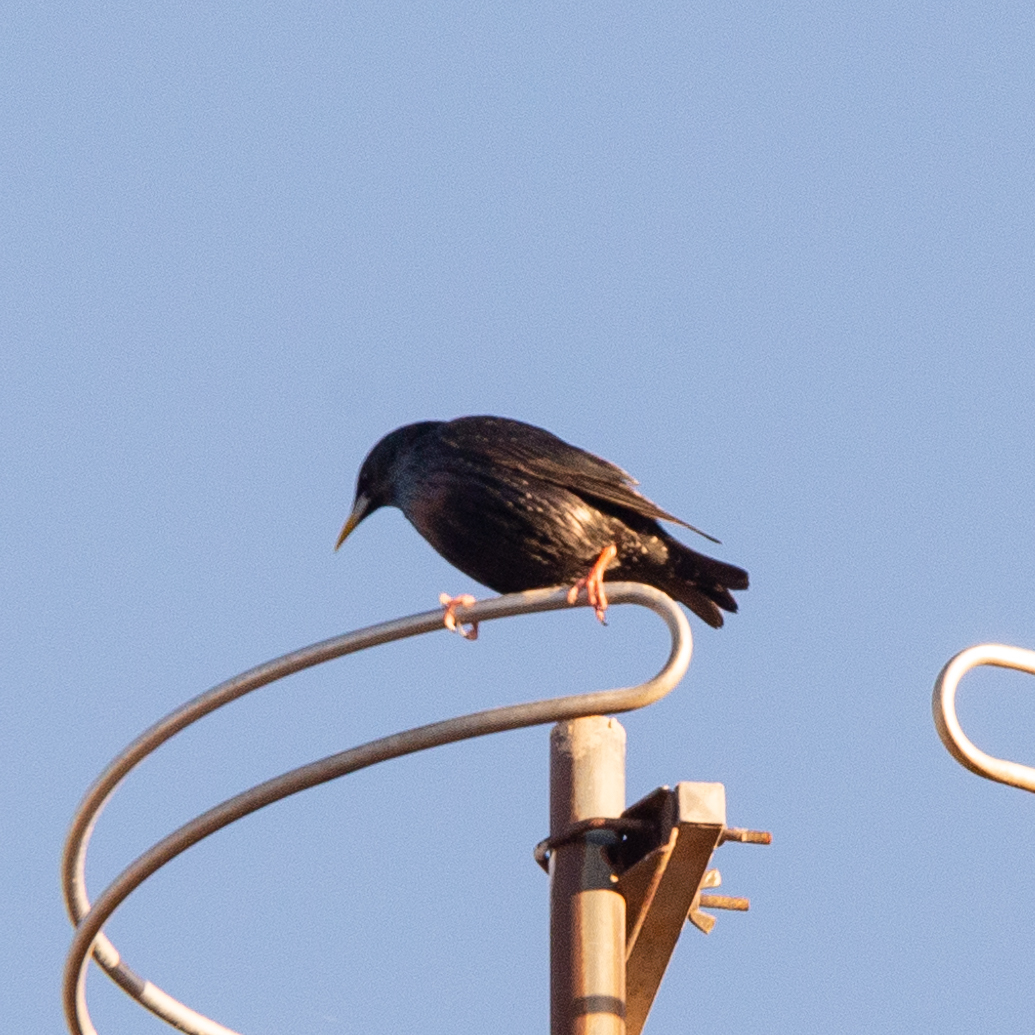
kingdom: Animalia
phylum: Chordata
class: Aves
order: Passeriformes
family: Sturnidae
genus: Sturnus
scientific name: Sturnus unicolor
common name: Spotless starling
